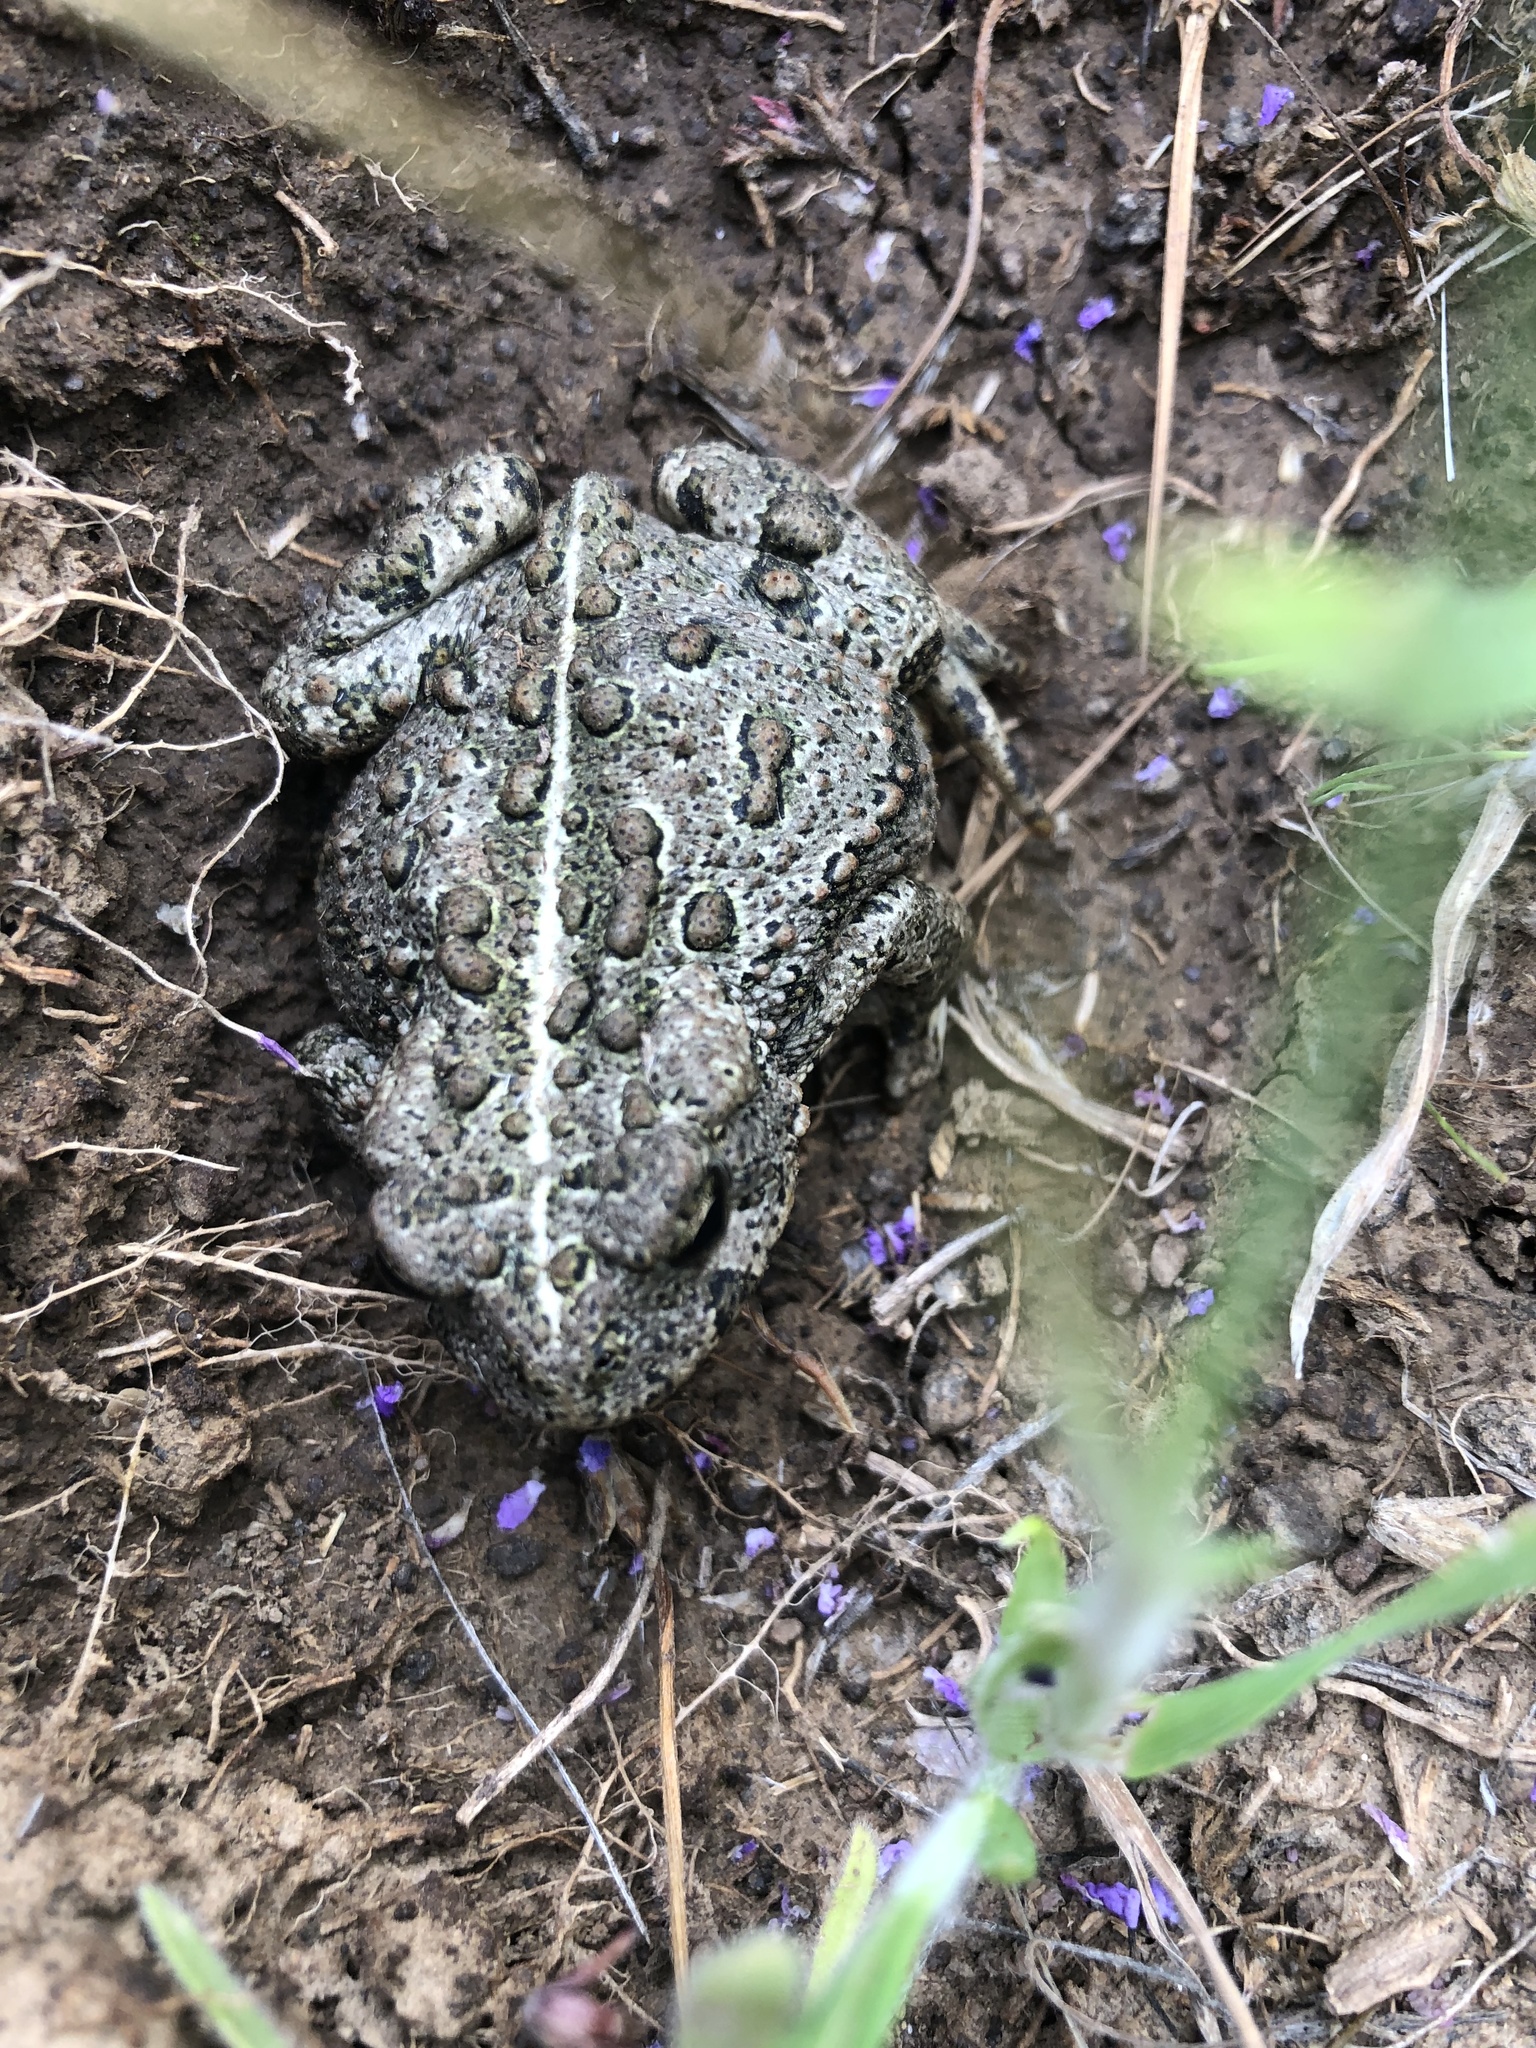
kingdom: Animalia
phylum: Chordata
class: Amphibia
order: Anura
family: Bufonidae
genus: Anaxyrus
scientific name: Anaxyrus boreas
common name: Western toad
